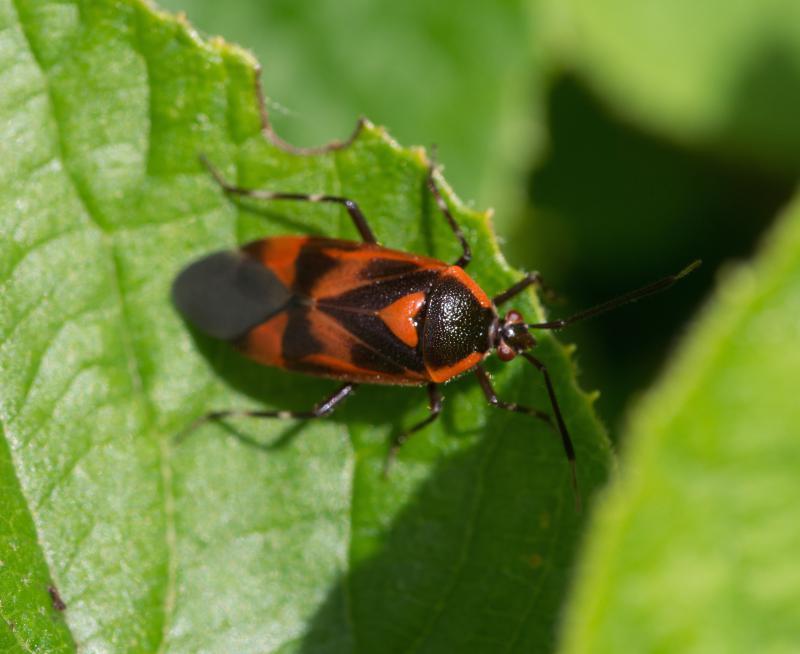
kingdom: Animalia
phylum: Arthropoda
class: Insecta
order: Hemiptera
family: Miridae
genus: Deraeocoris
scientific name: Deraeocoris trifasciatus
